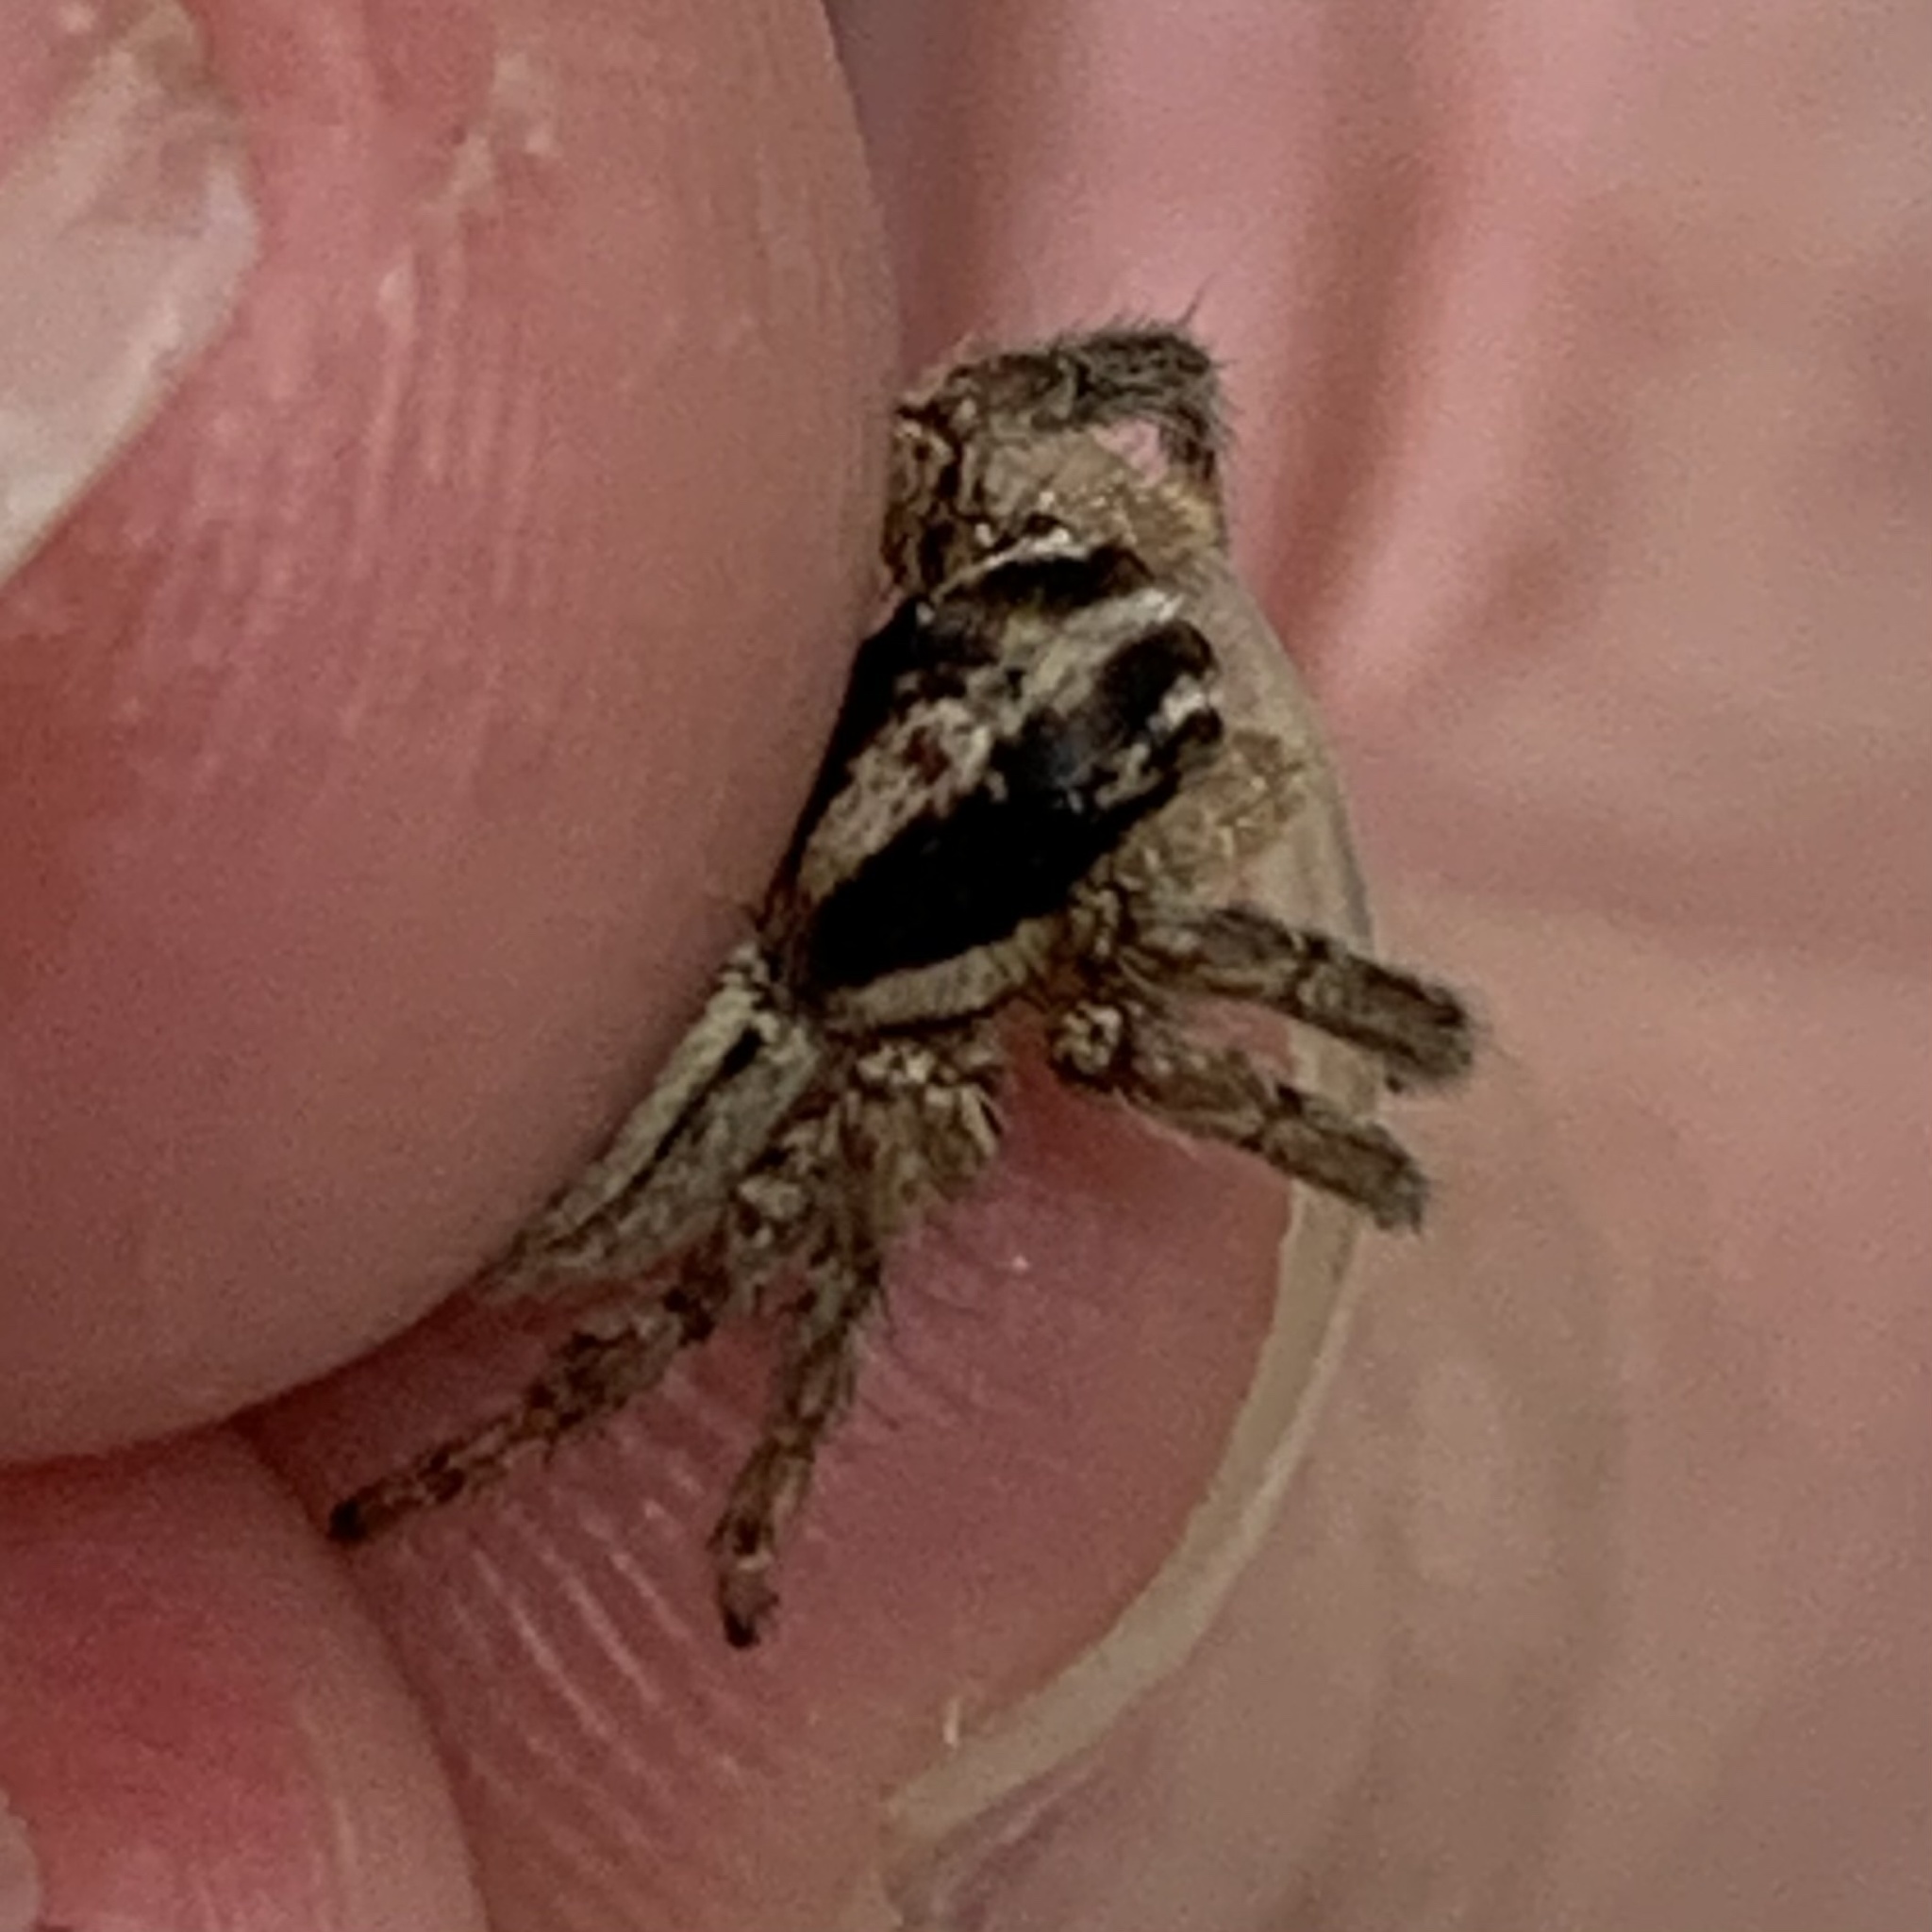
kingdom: Animalia
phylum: Arthropoda
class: Arachnida
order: Araneae
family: Salticidae
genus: Plexippus
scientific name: Plexippus paykulli
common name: Pantropical jumper
